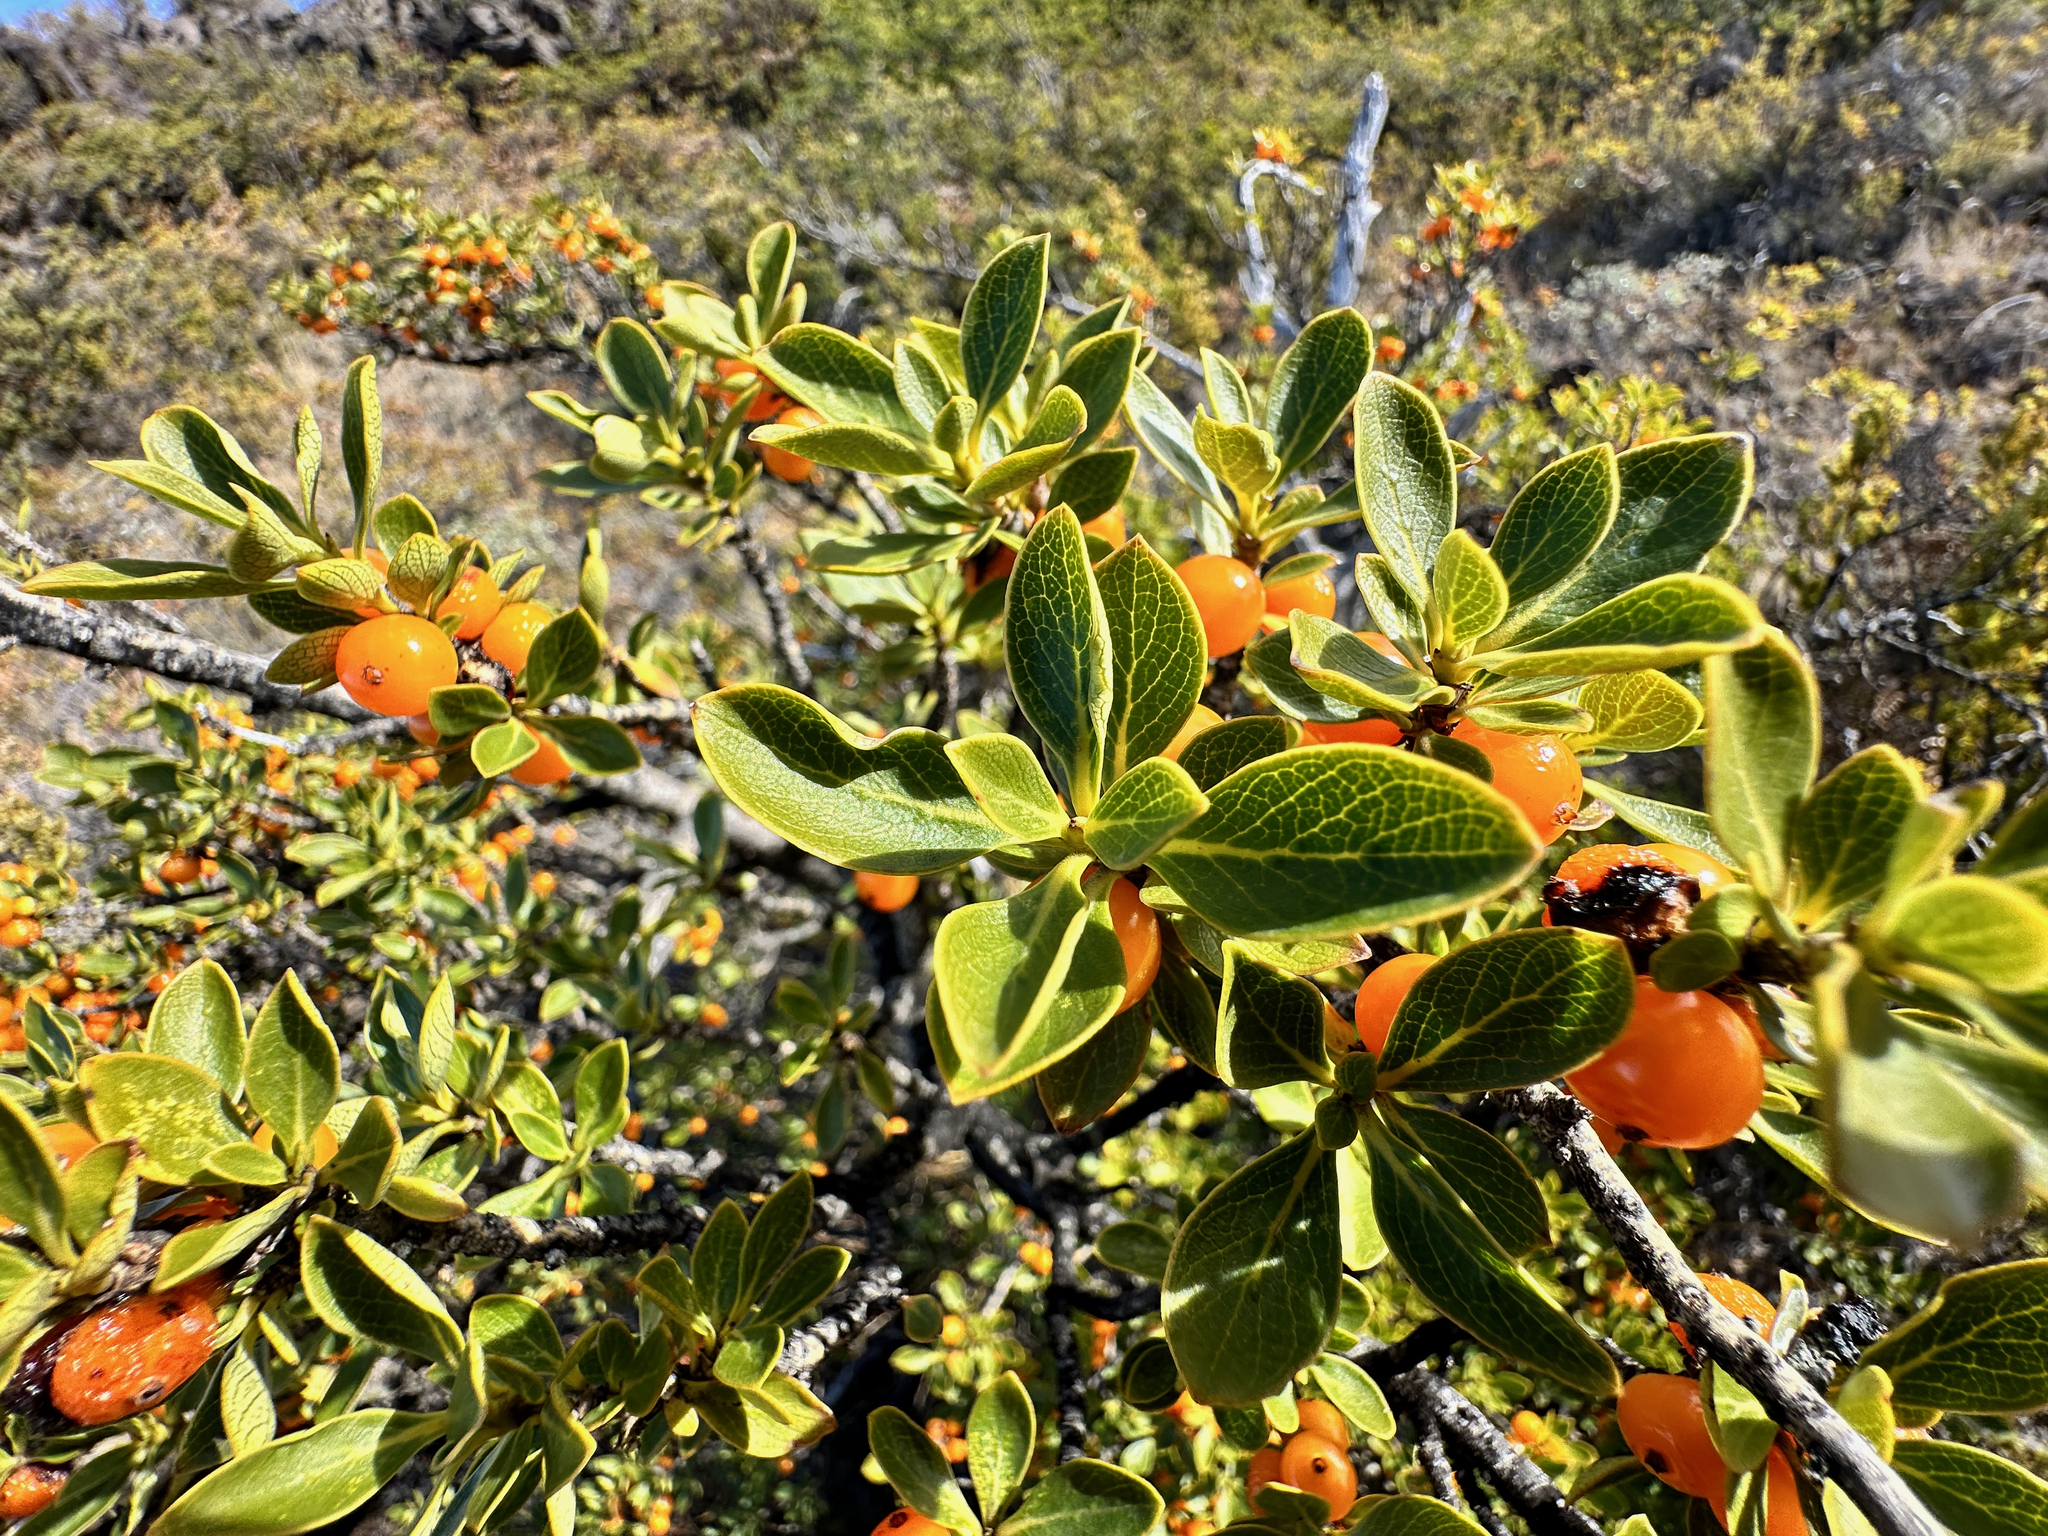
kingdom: Plantae
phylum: Tracheophyta
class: Magnoliopsida
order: Gentianales
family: Rubiaceae
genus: Coprosma
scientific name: Coprosma montana
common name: Alpine mirror plant
